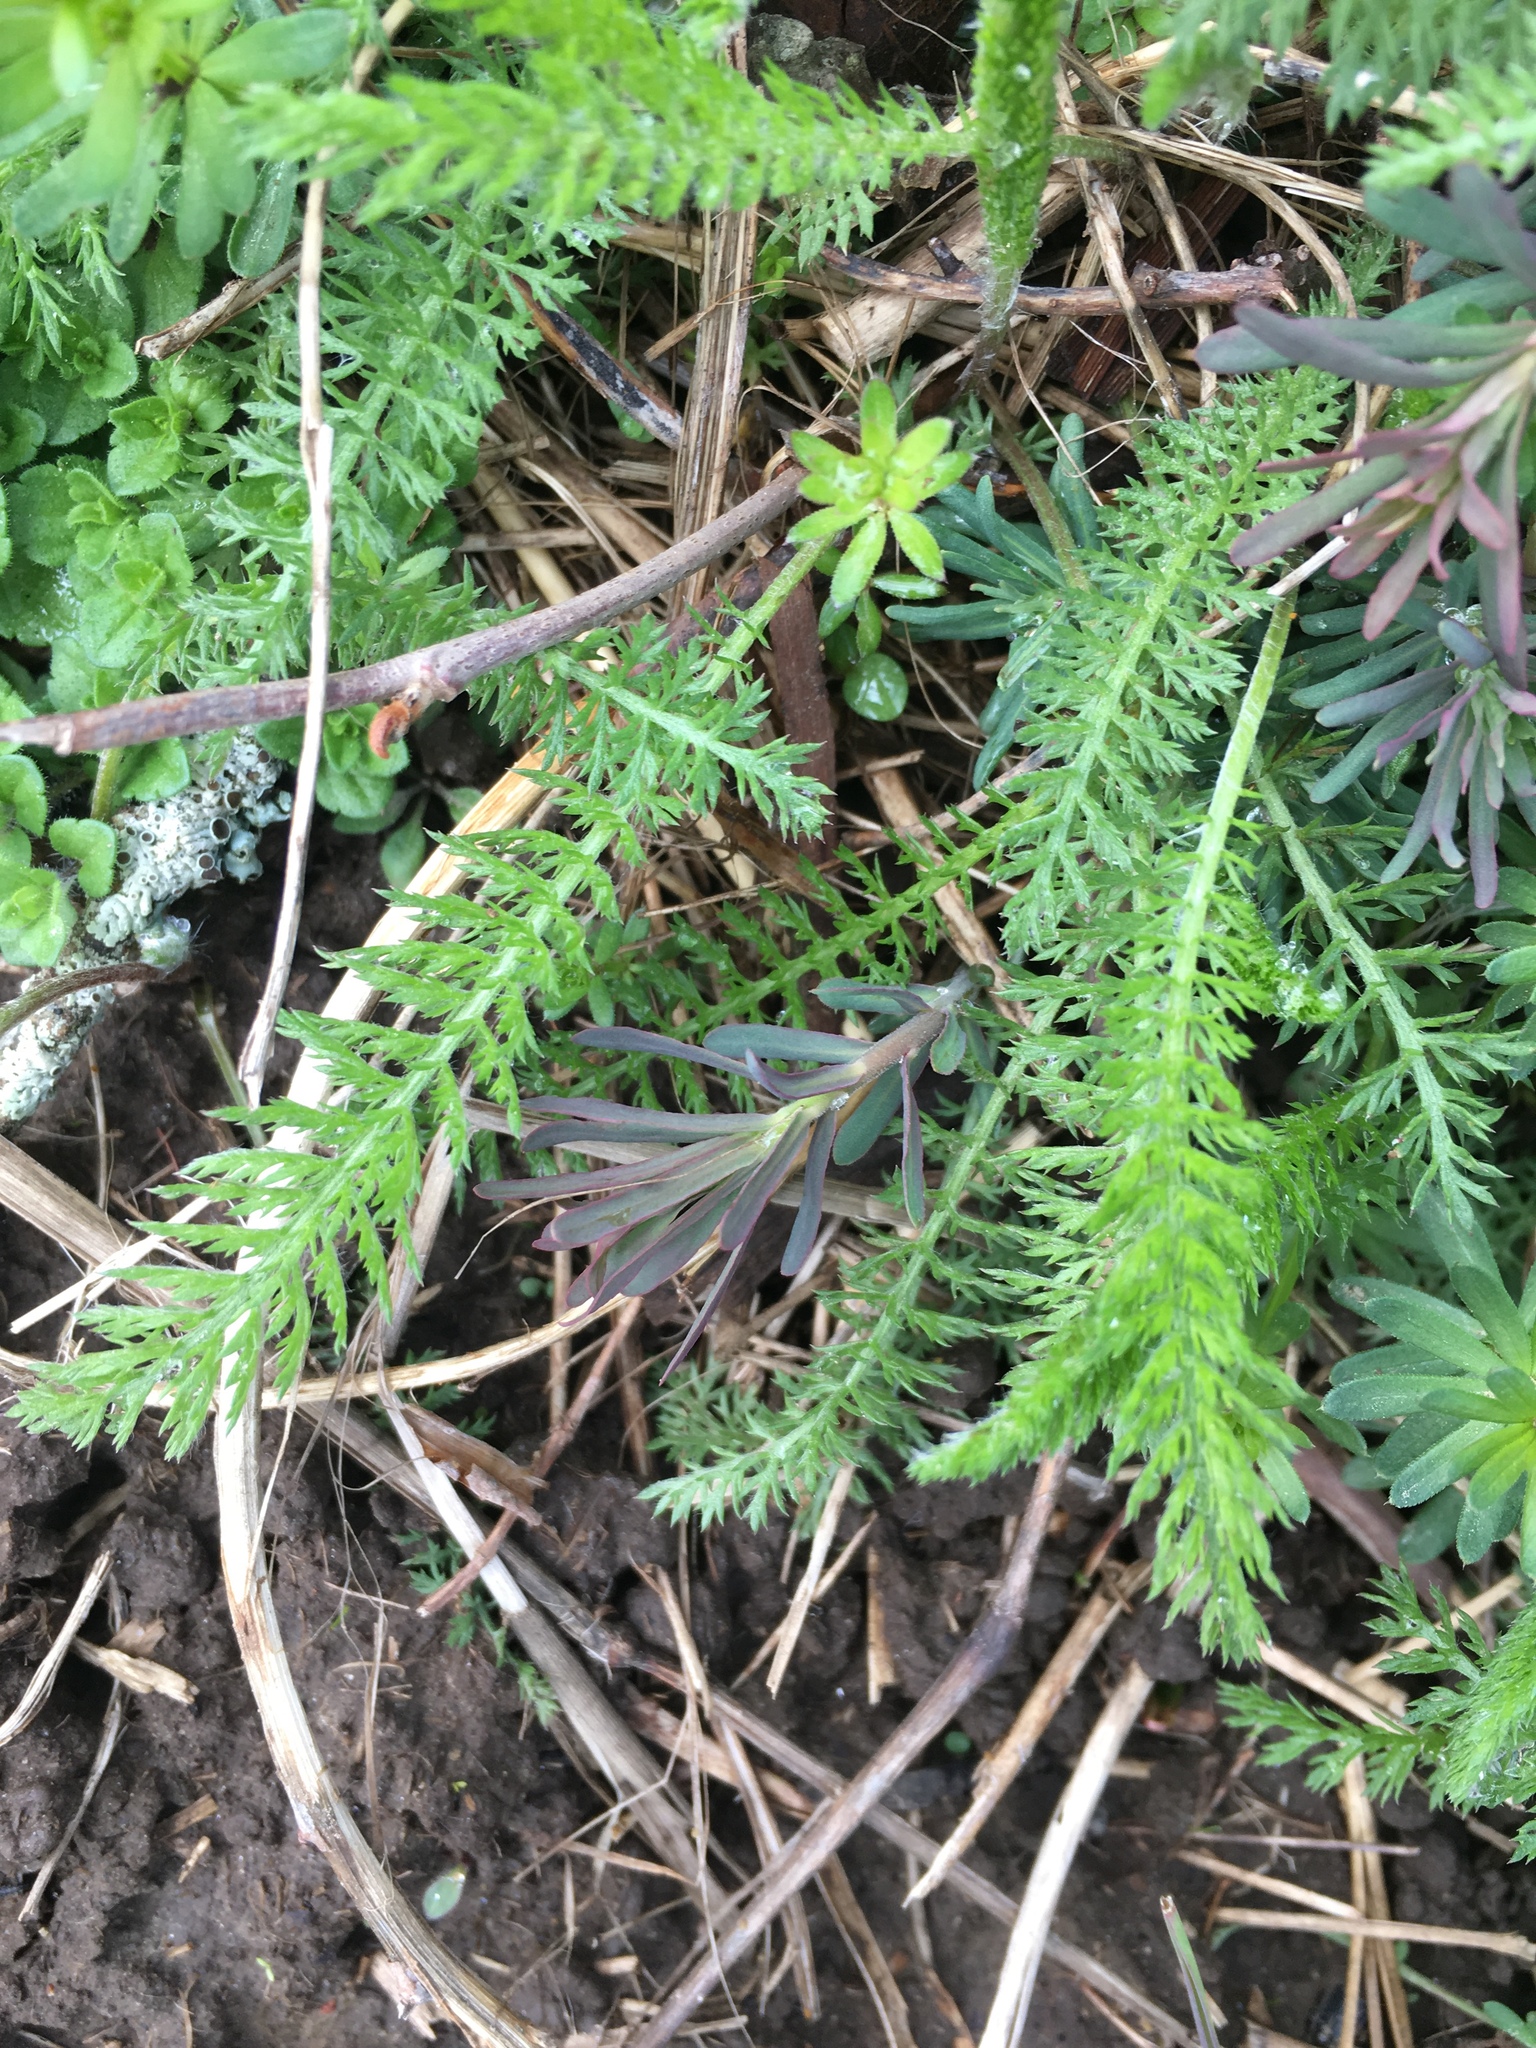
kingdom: Plantae
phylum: Tracheophyta
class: Magnoliopsida
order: Asterales
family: Asteraceae
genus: Achillea
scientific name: Achillea millefolium
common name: Yarrow
